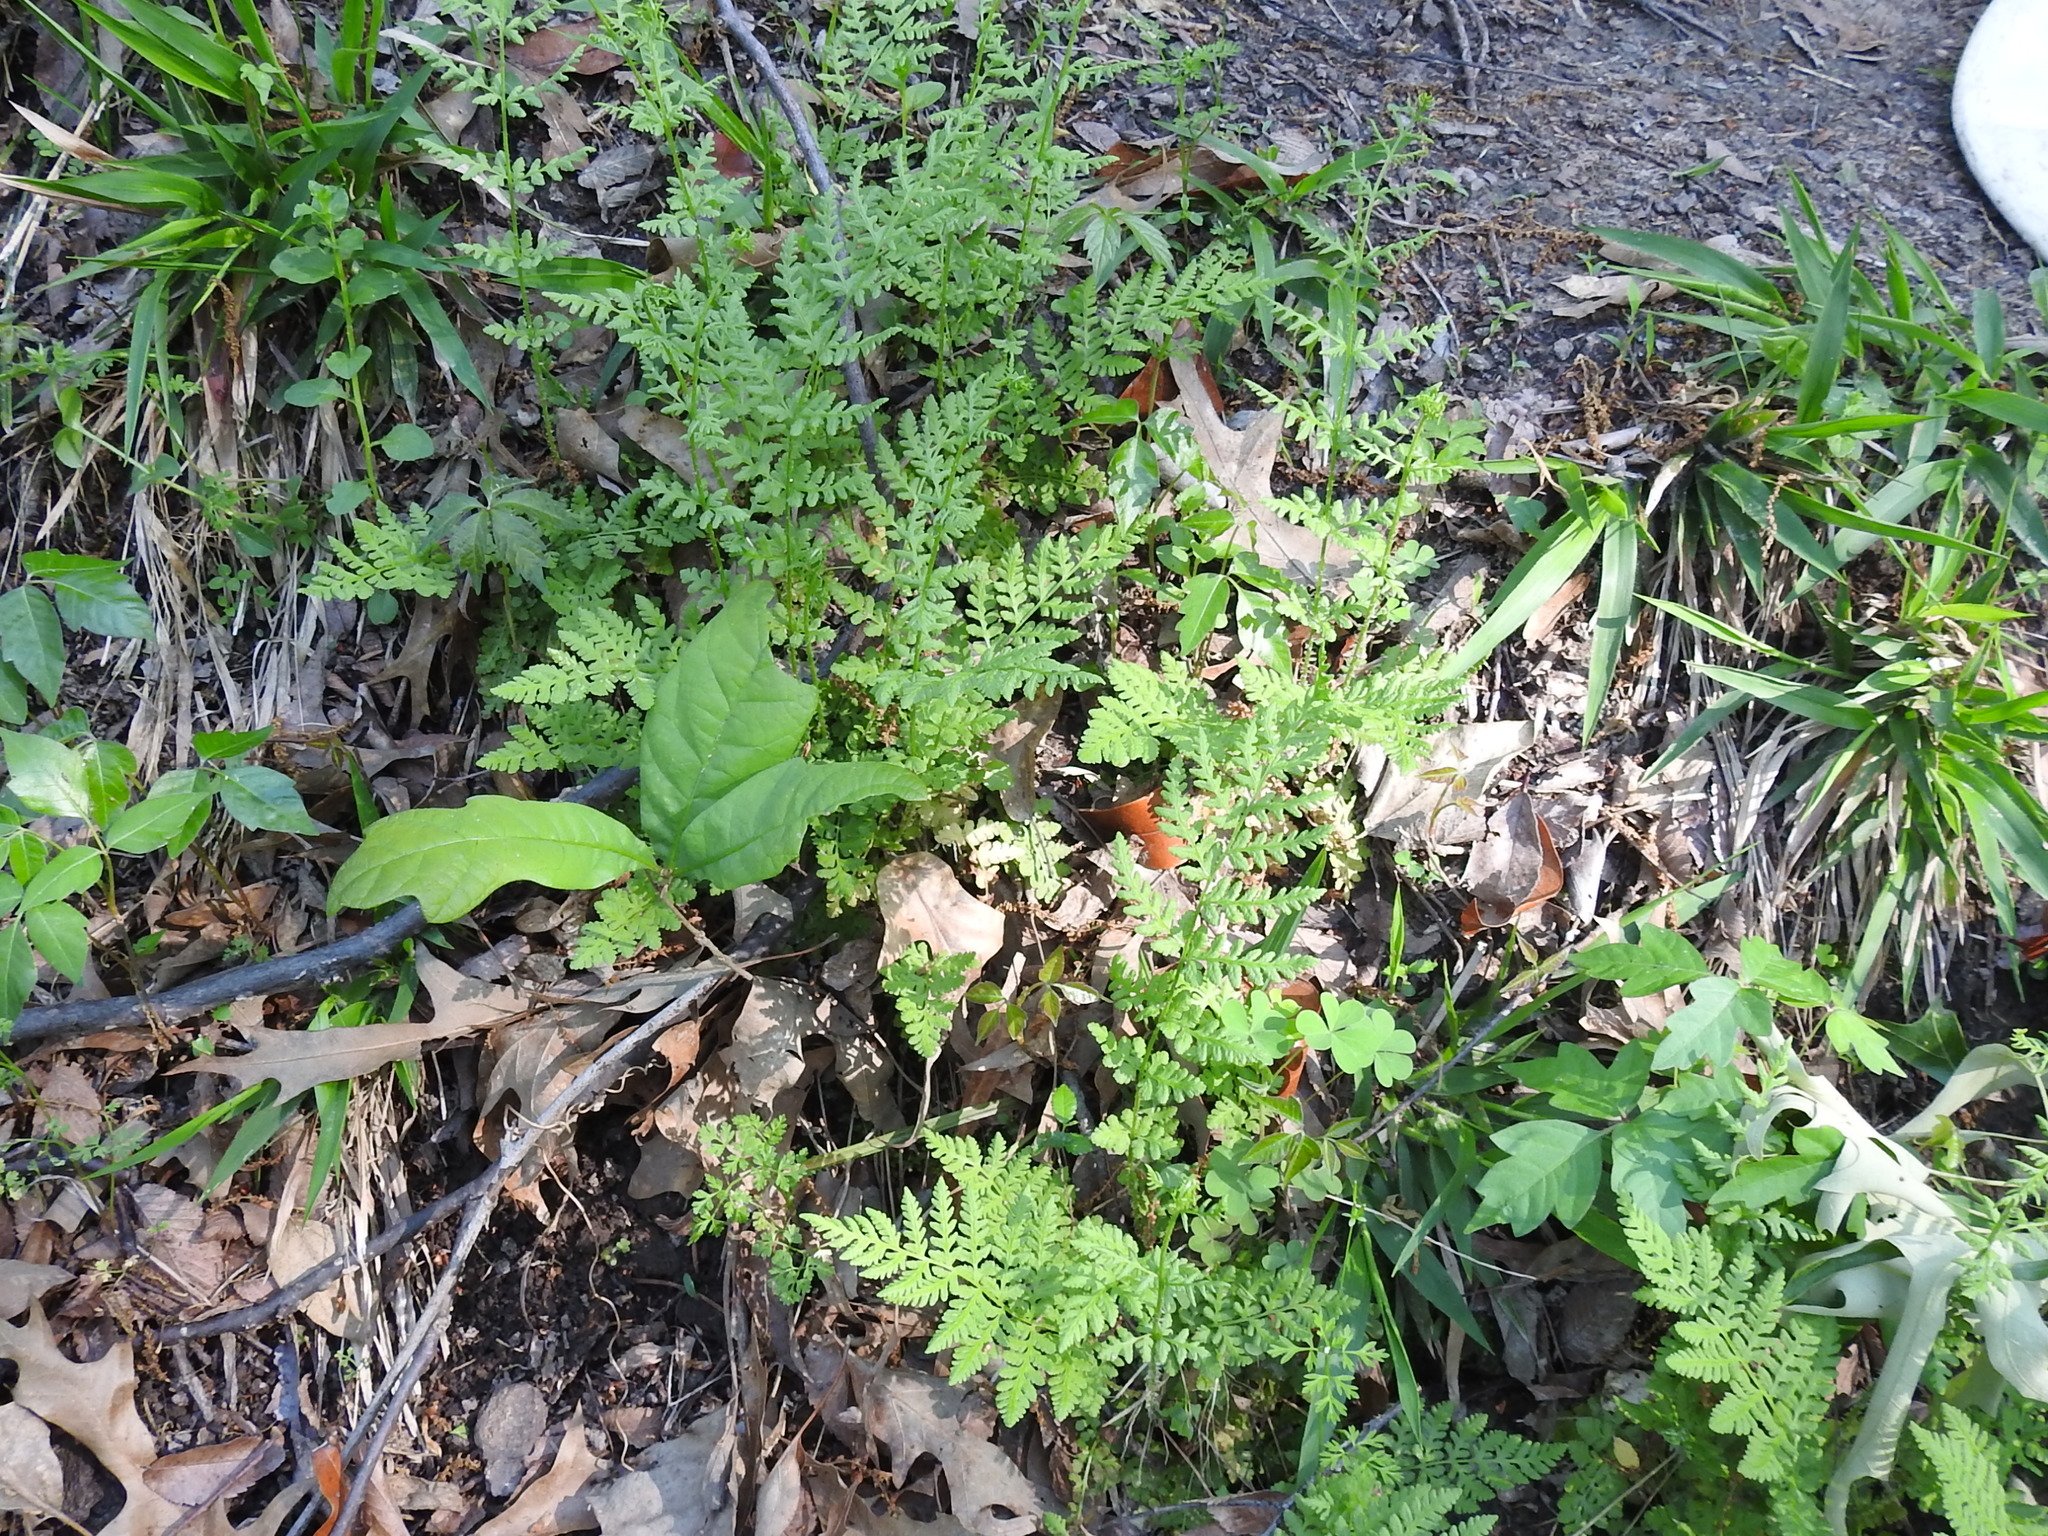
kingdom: Plantae
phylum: Tracheophyta
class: Polypodiopsida
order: Polypodiales
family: Athyriaceae
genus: Athyrium
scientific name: Athyrium asplenioides
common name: Southern lady fern
